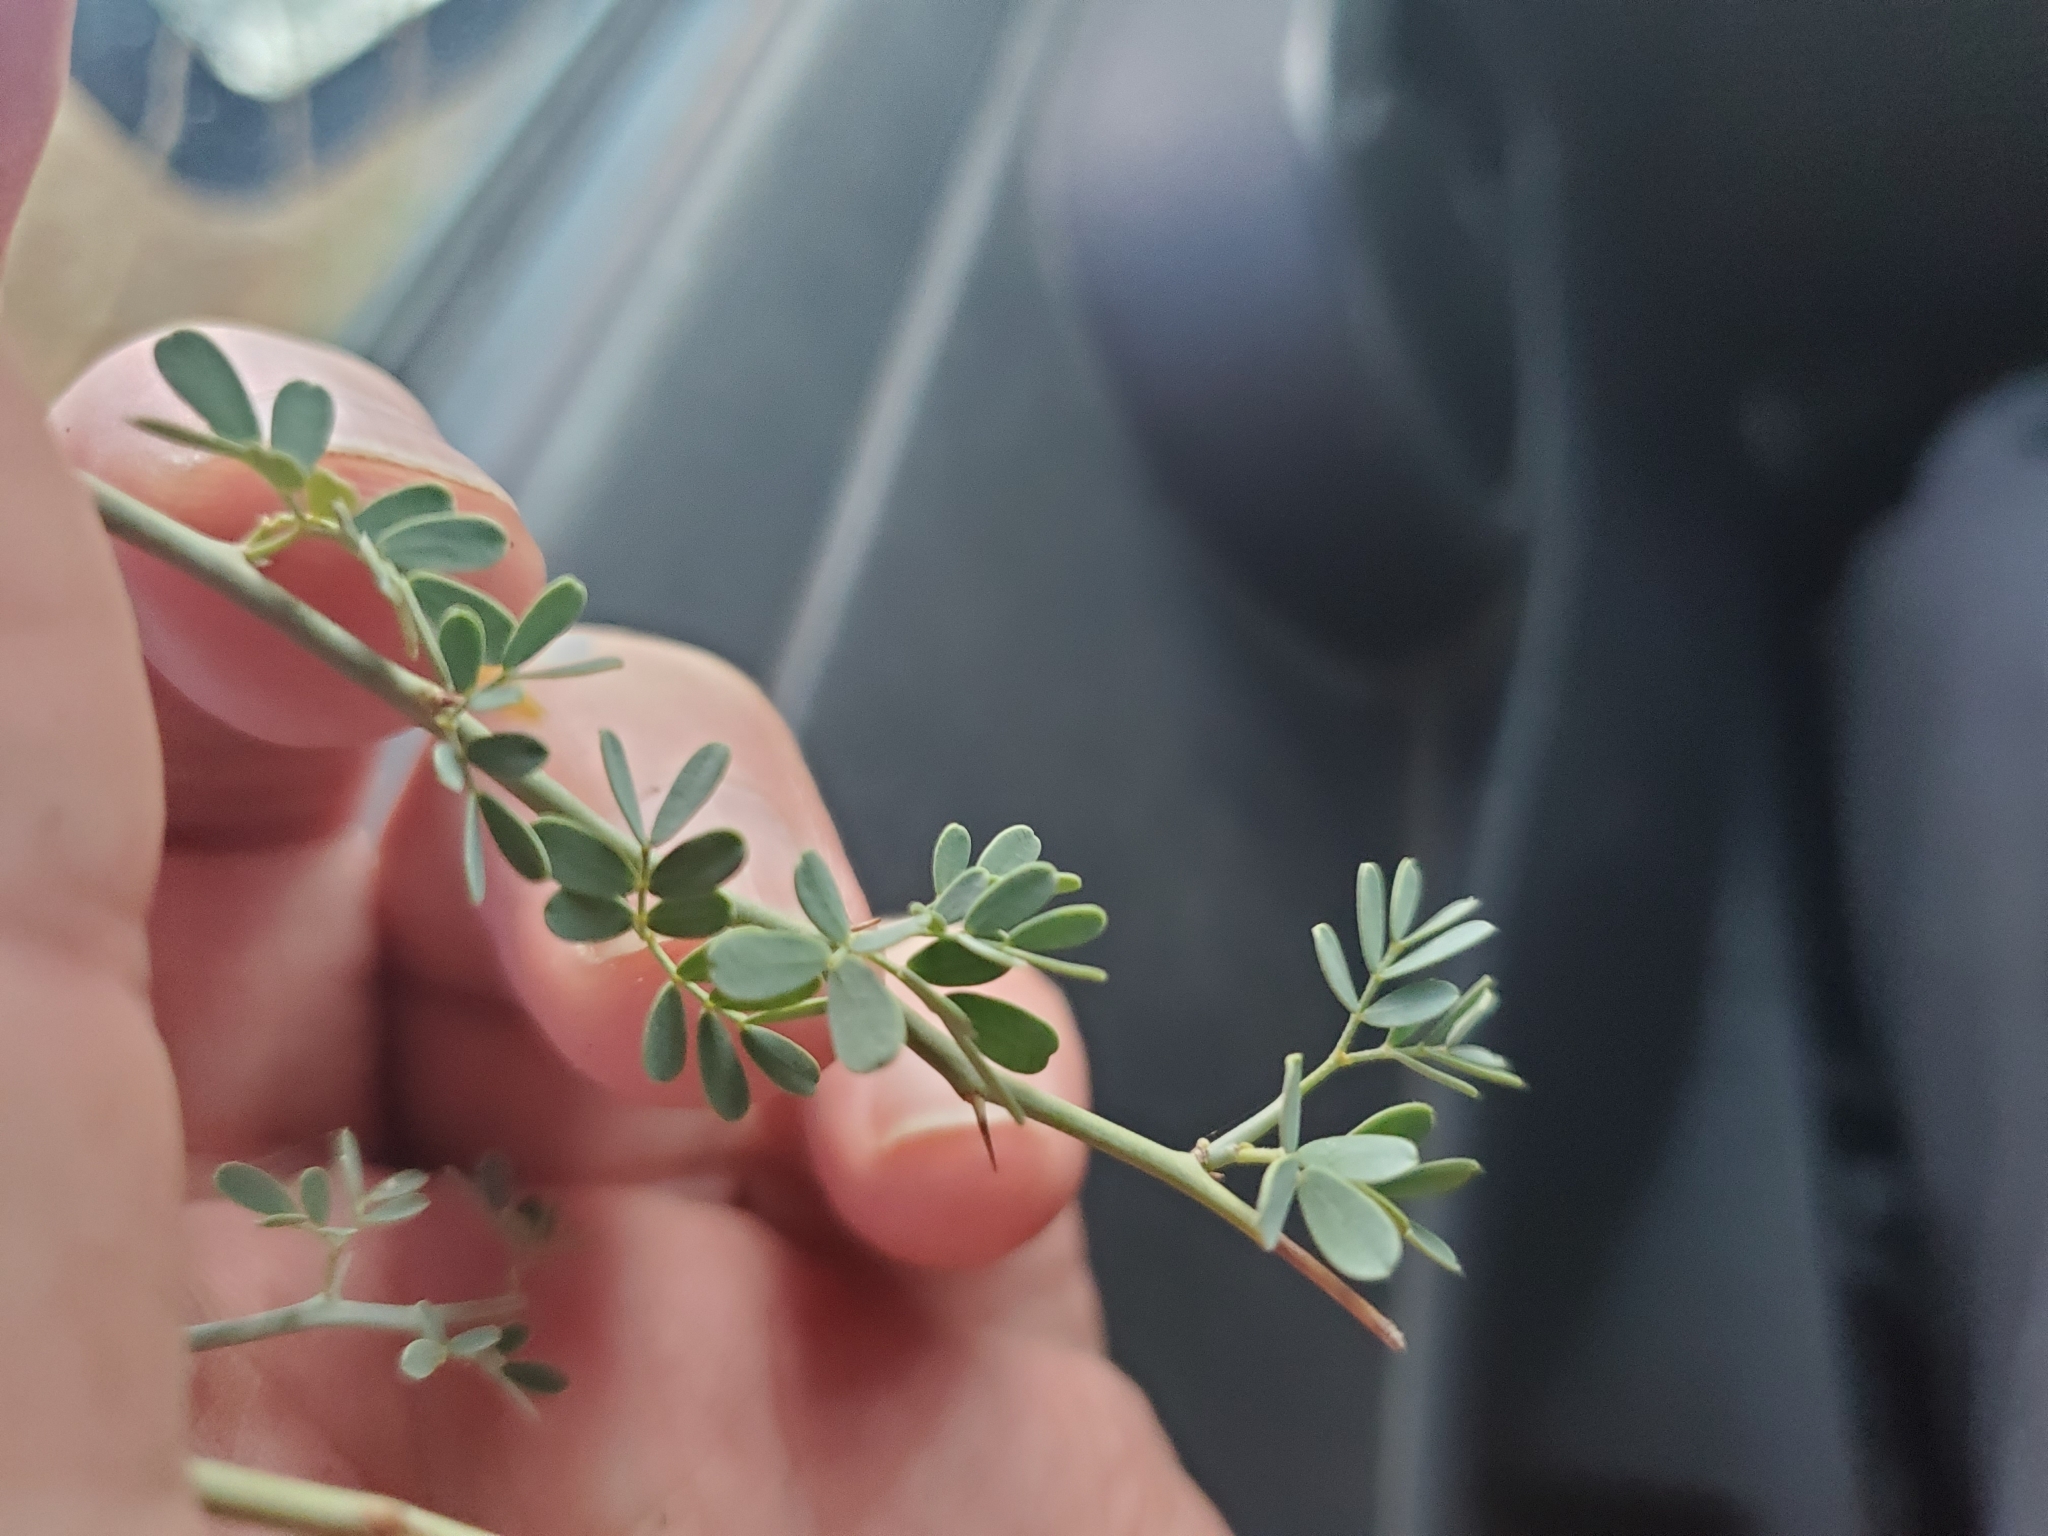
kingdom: Plantae
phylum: Tracheophyta
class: Magnoliopsida
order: Fabales
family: Fabaceae
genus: Parkinsonia
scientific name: Parkinsonia florida
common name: Blue paloverde
